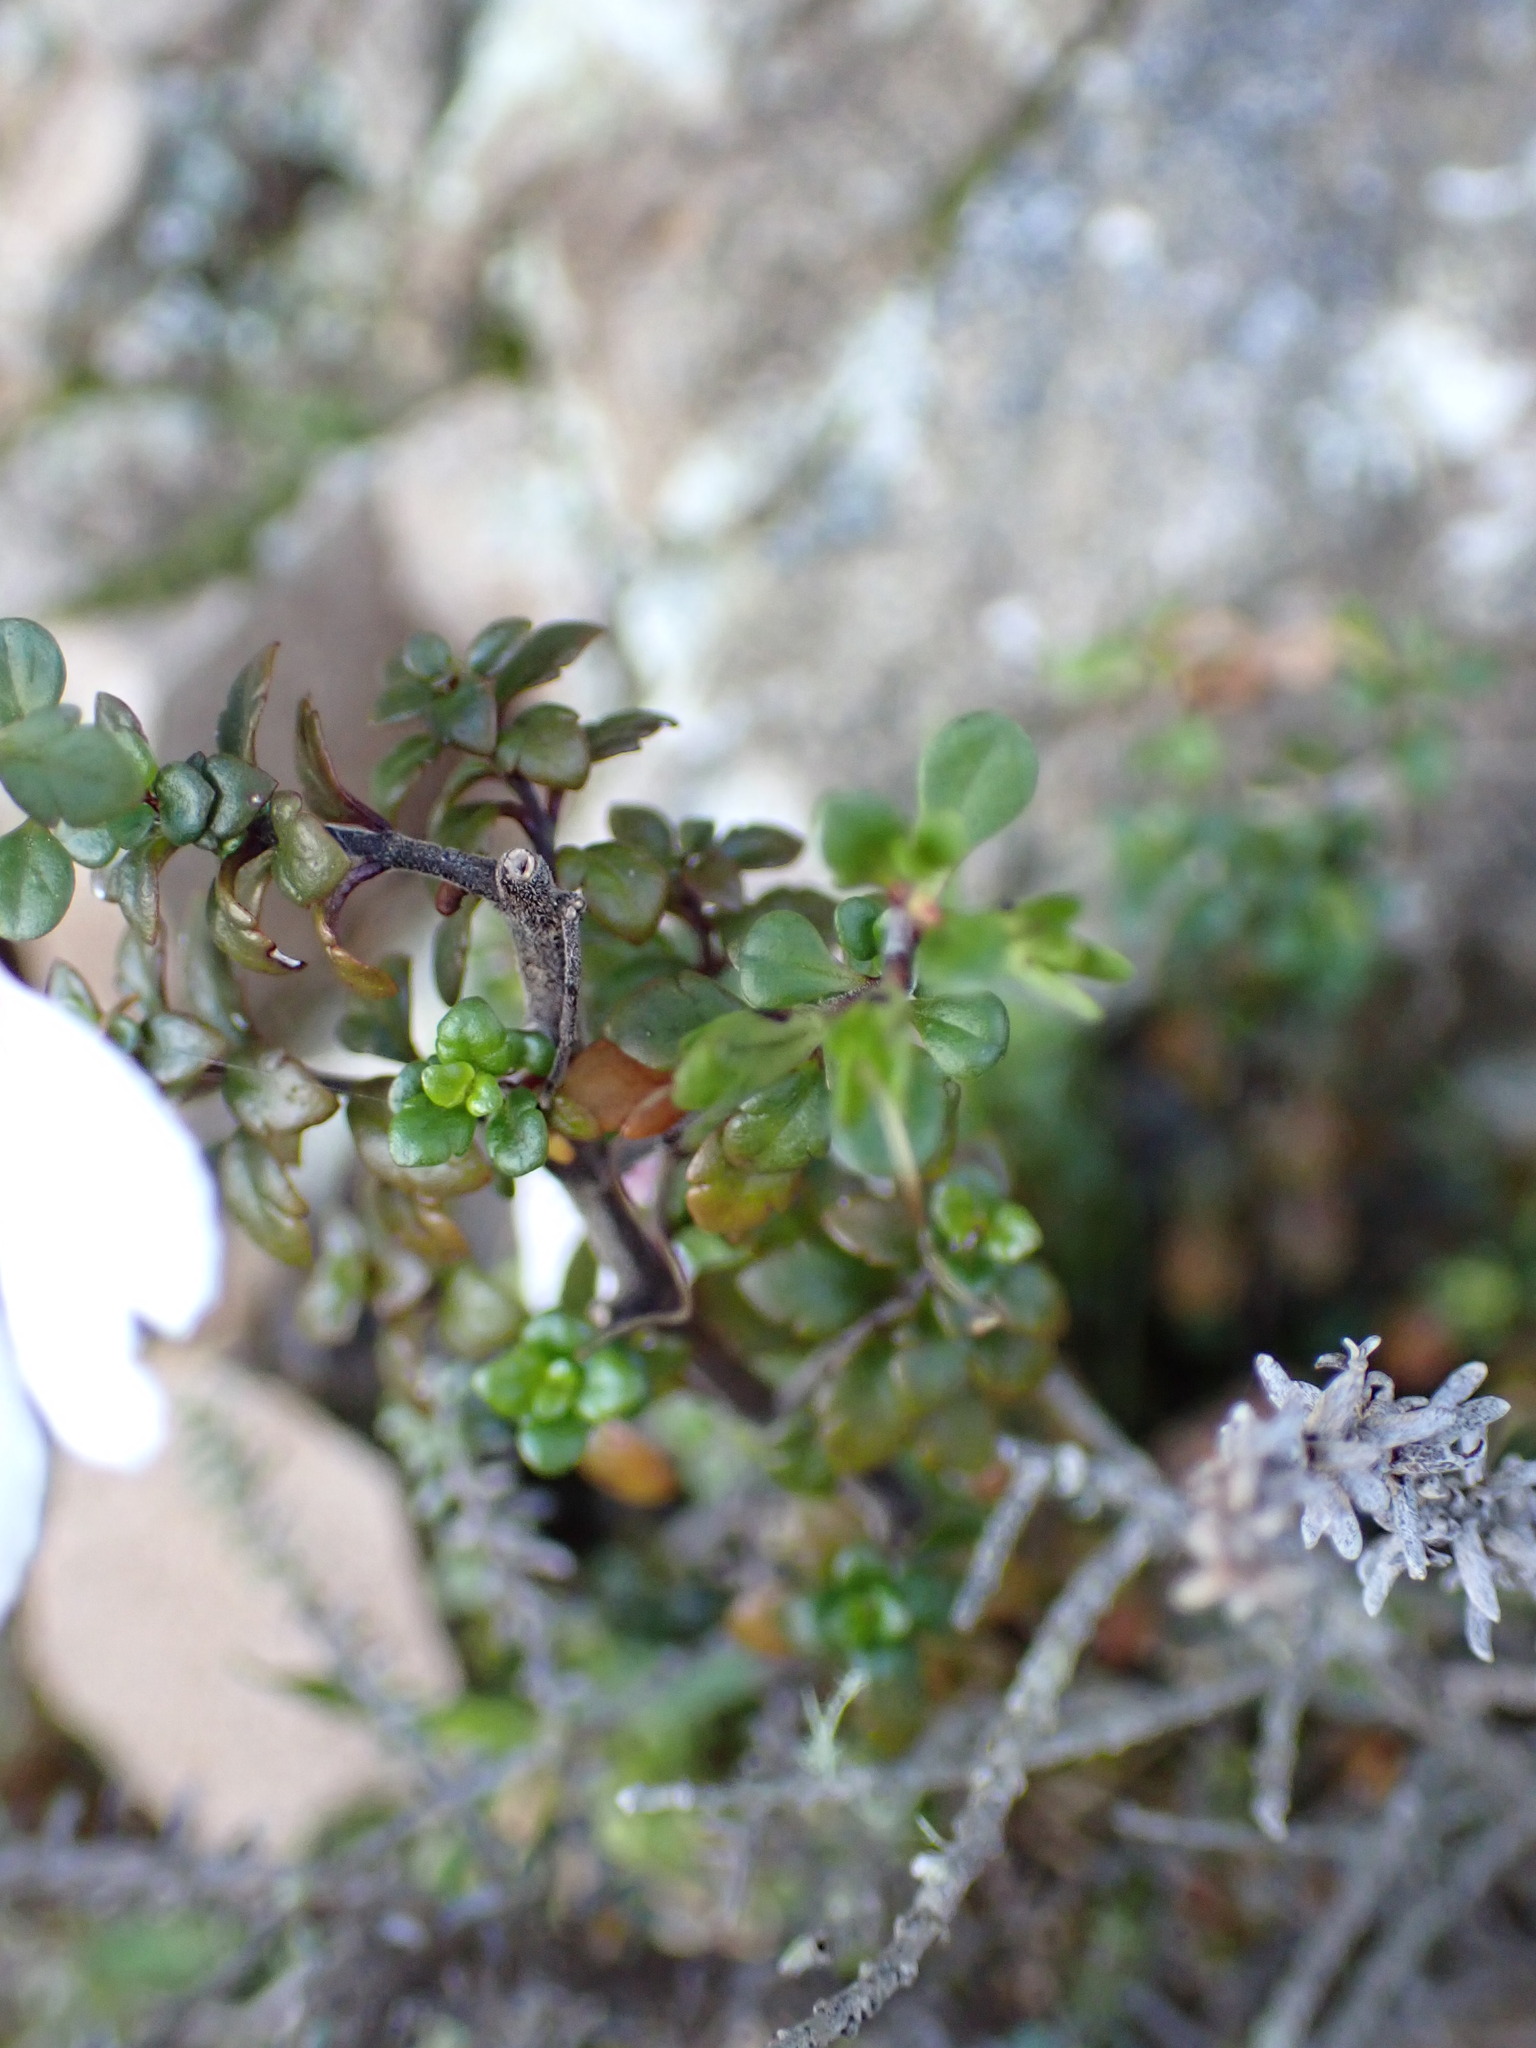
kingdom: Plantae
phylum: Tracheophyta
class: Magnoliopsida
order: Lamiales
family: Orobanchaceae
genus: Euphrasia
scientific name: Euphrasia cuneata
